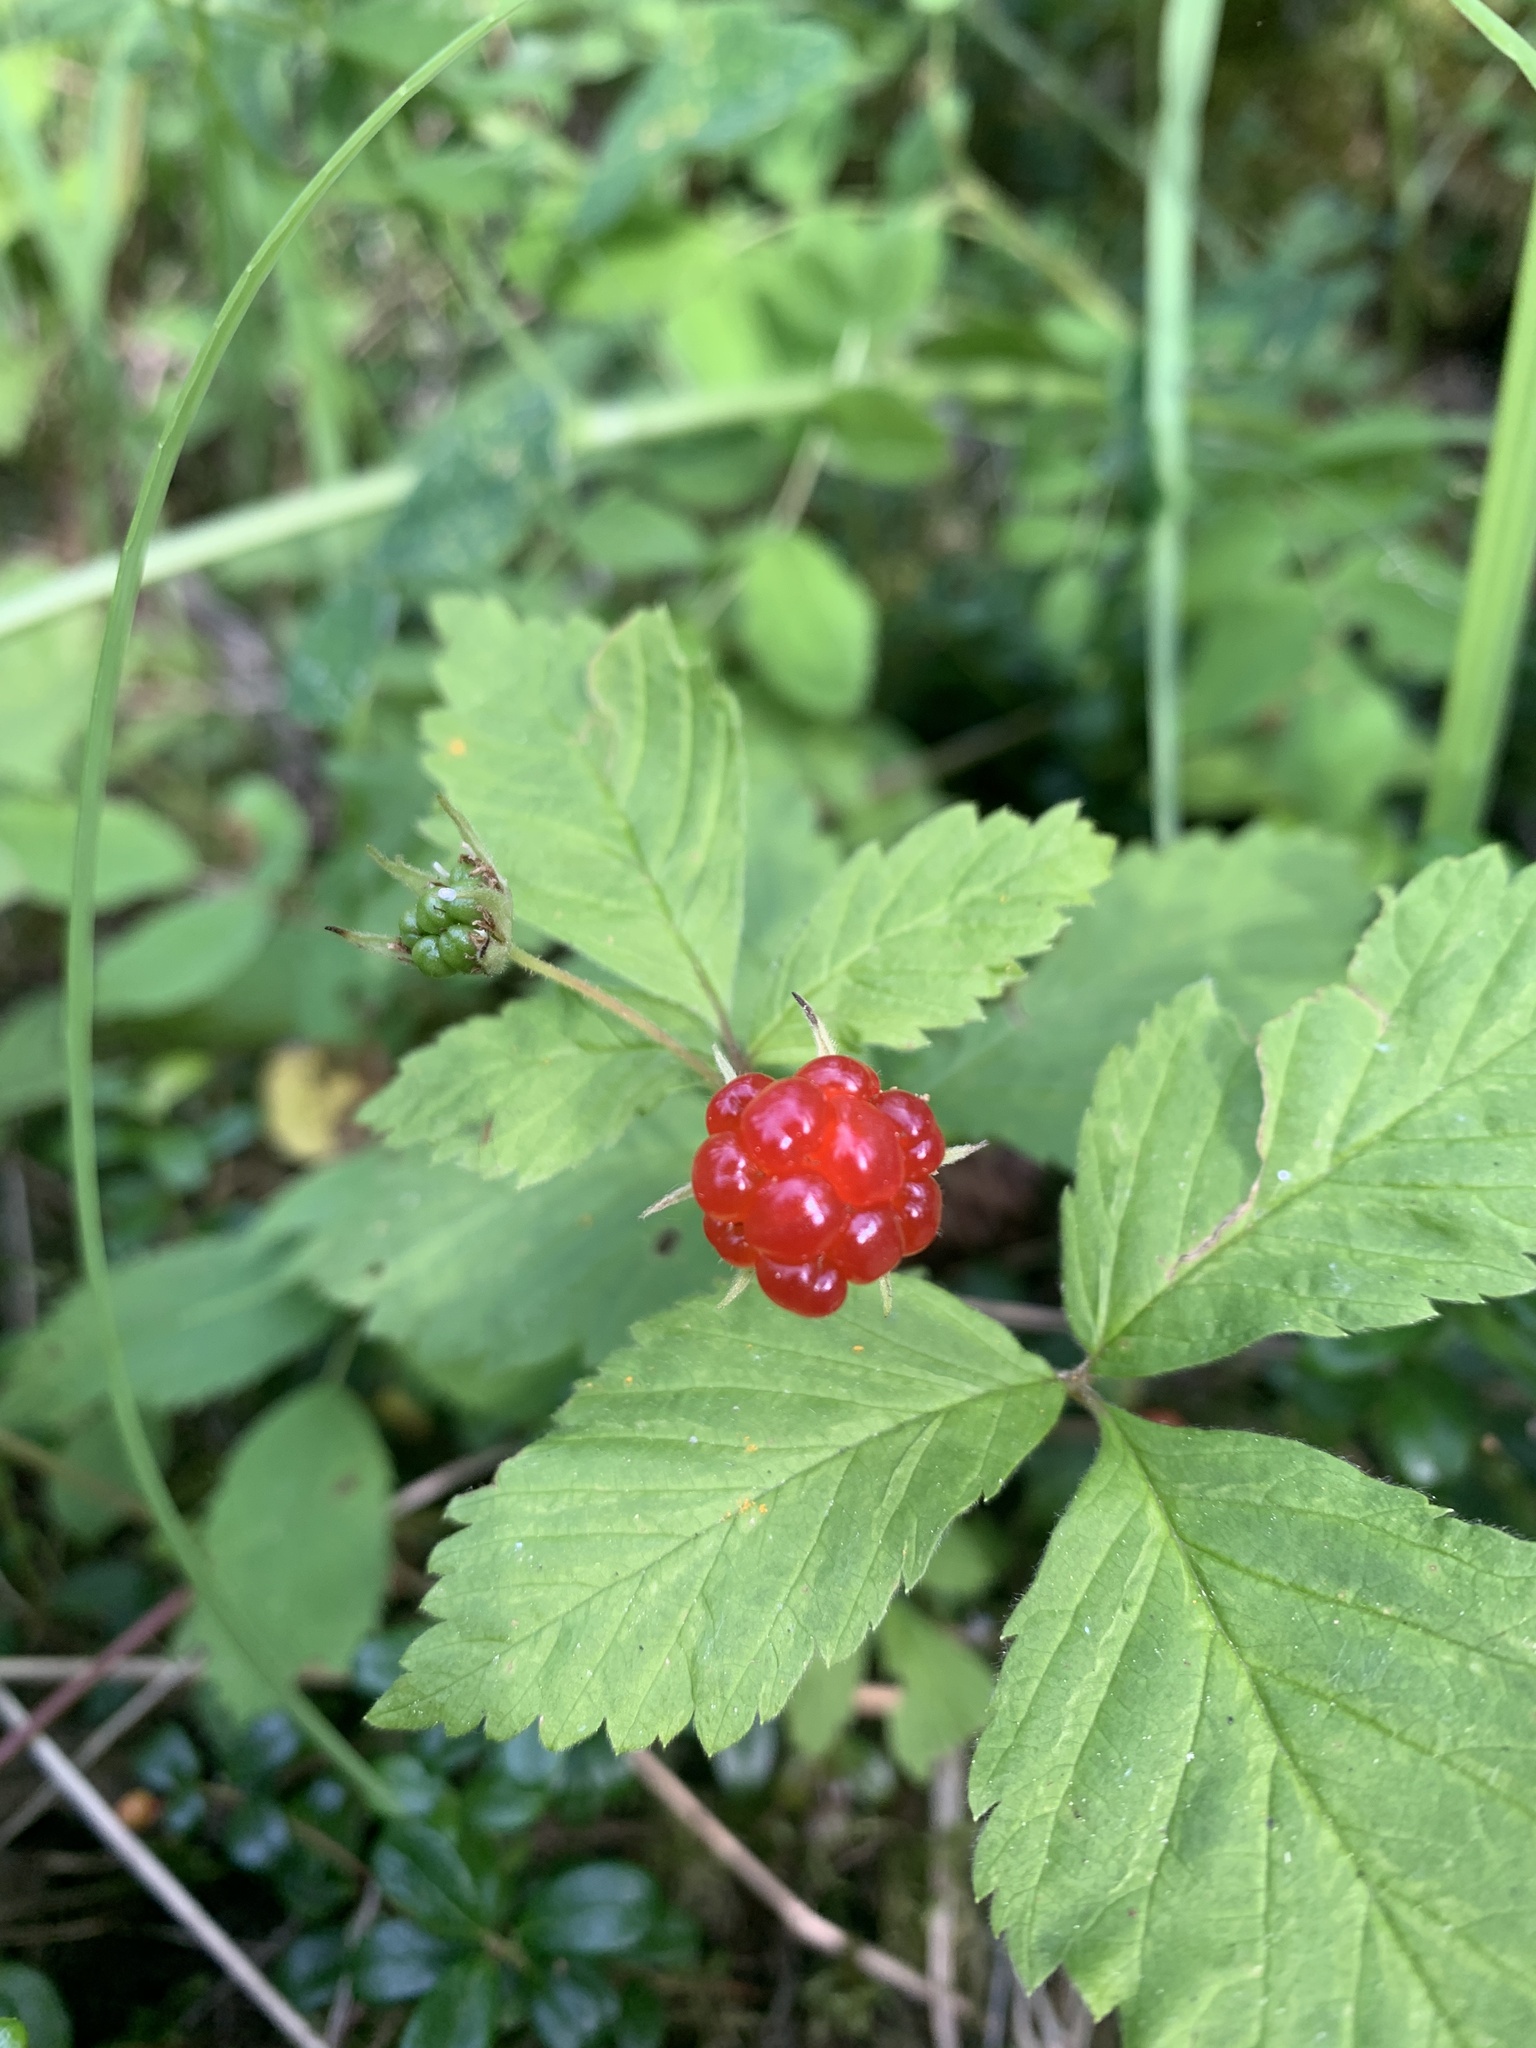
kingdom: Plantae
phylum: Tracheophyta
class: Magnoliopsida
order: Rosales
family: Rosaceae
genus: Rubus
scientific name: Rubus pubescens
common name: Dwarf raspberry
